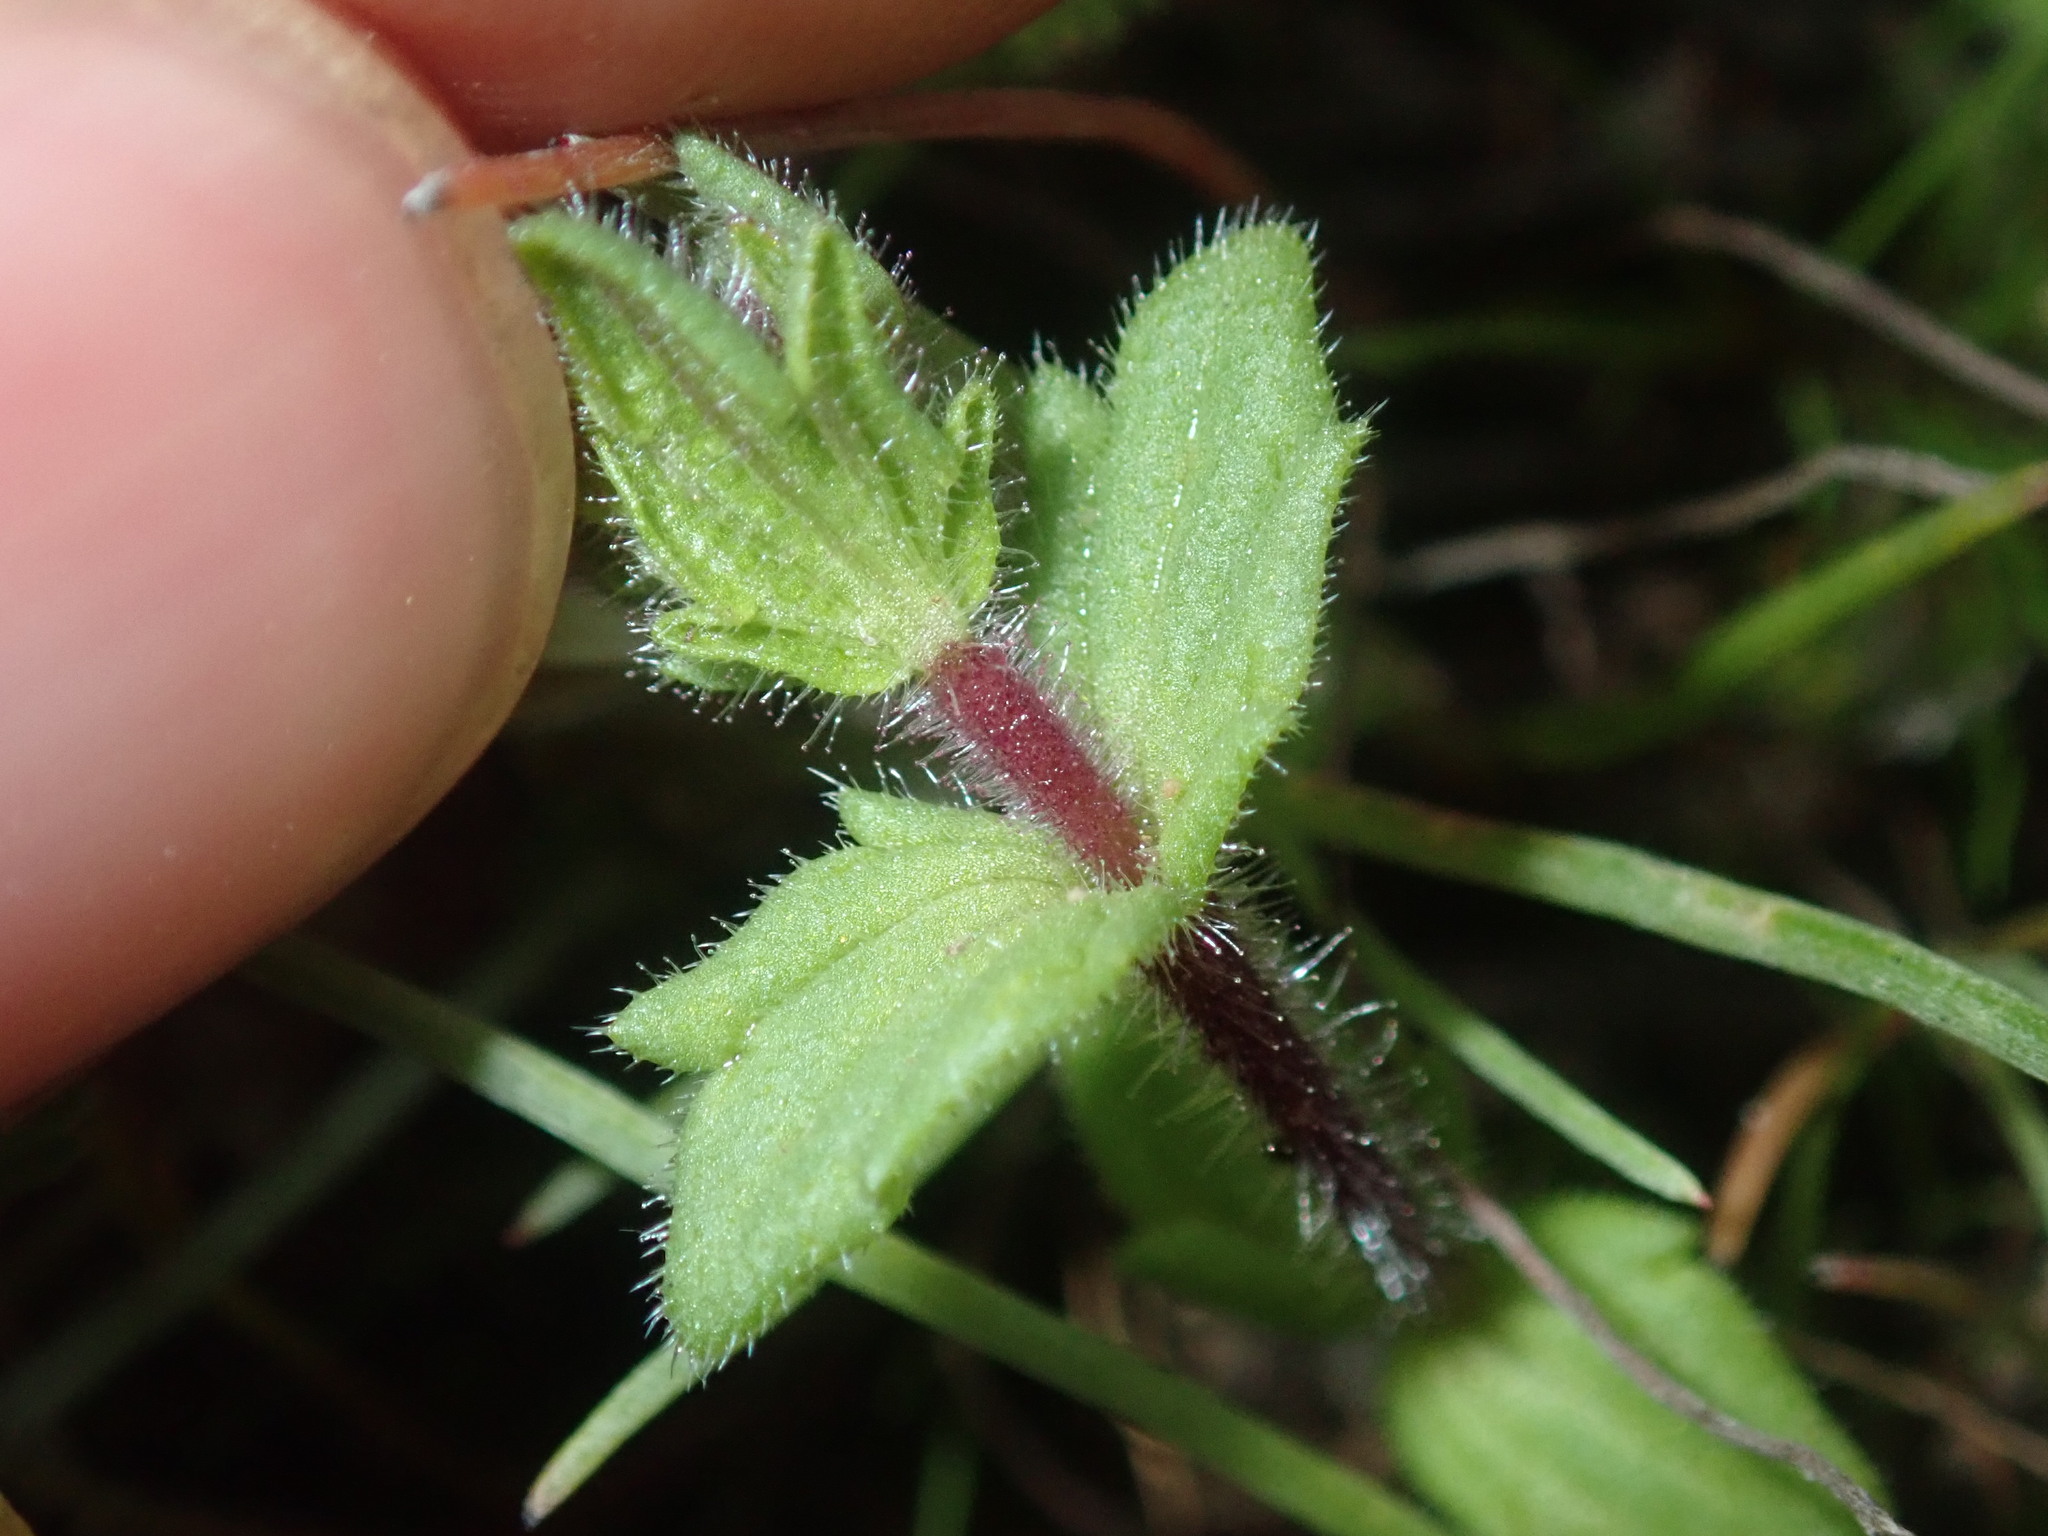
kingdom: Plantae
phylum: Tracheophyta
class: Magnoliopsida
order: Lamiales
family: Orobanchaceae
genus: Parentucellia
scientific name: Parentucellia latifolia
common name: Broadleaf glandweed
